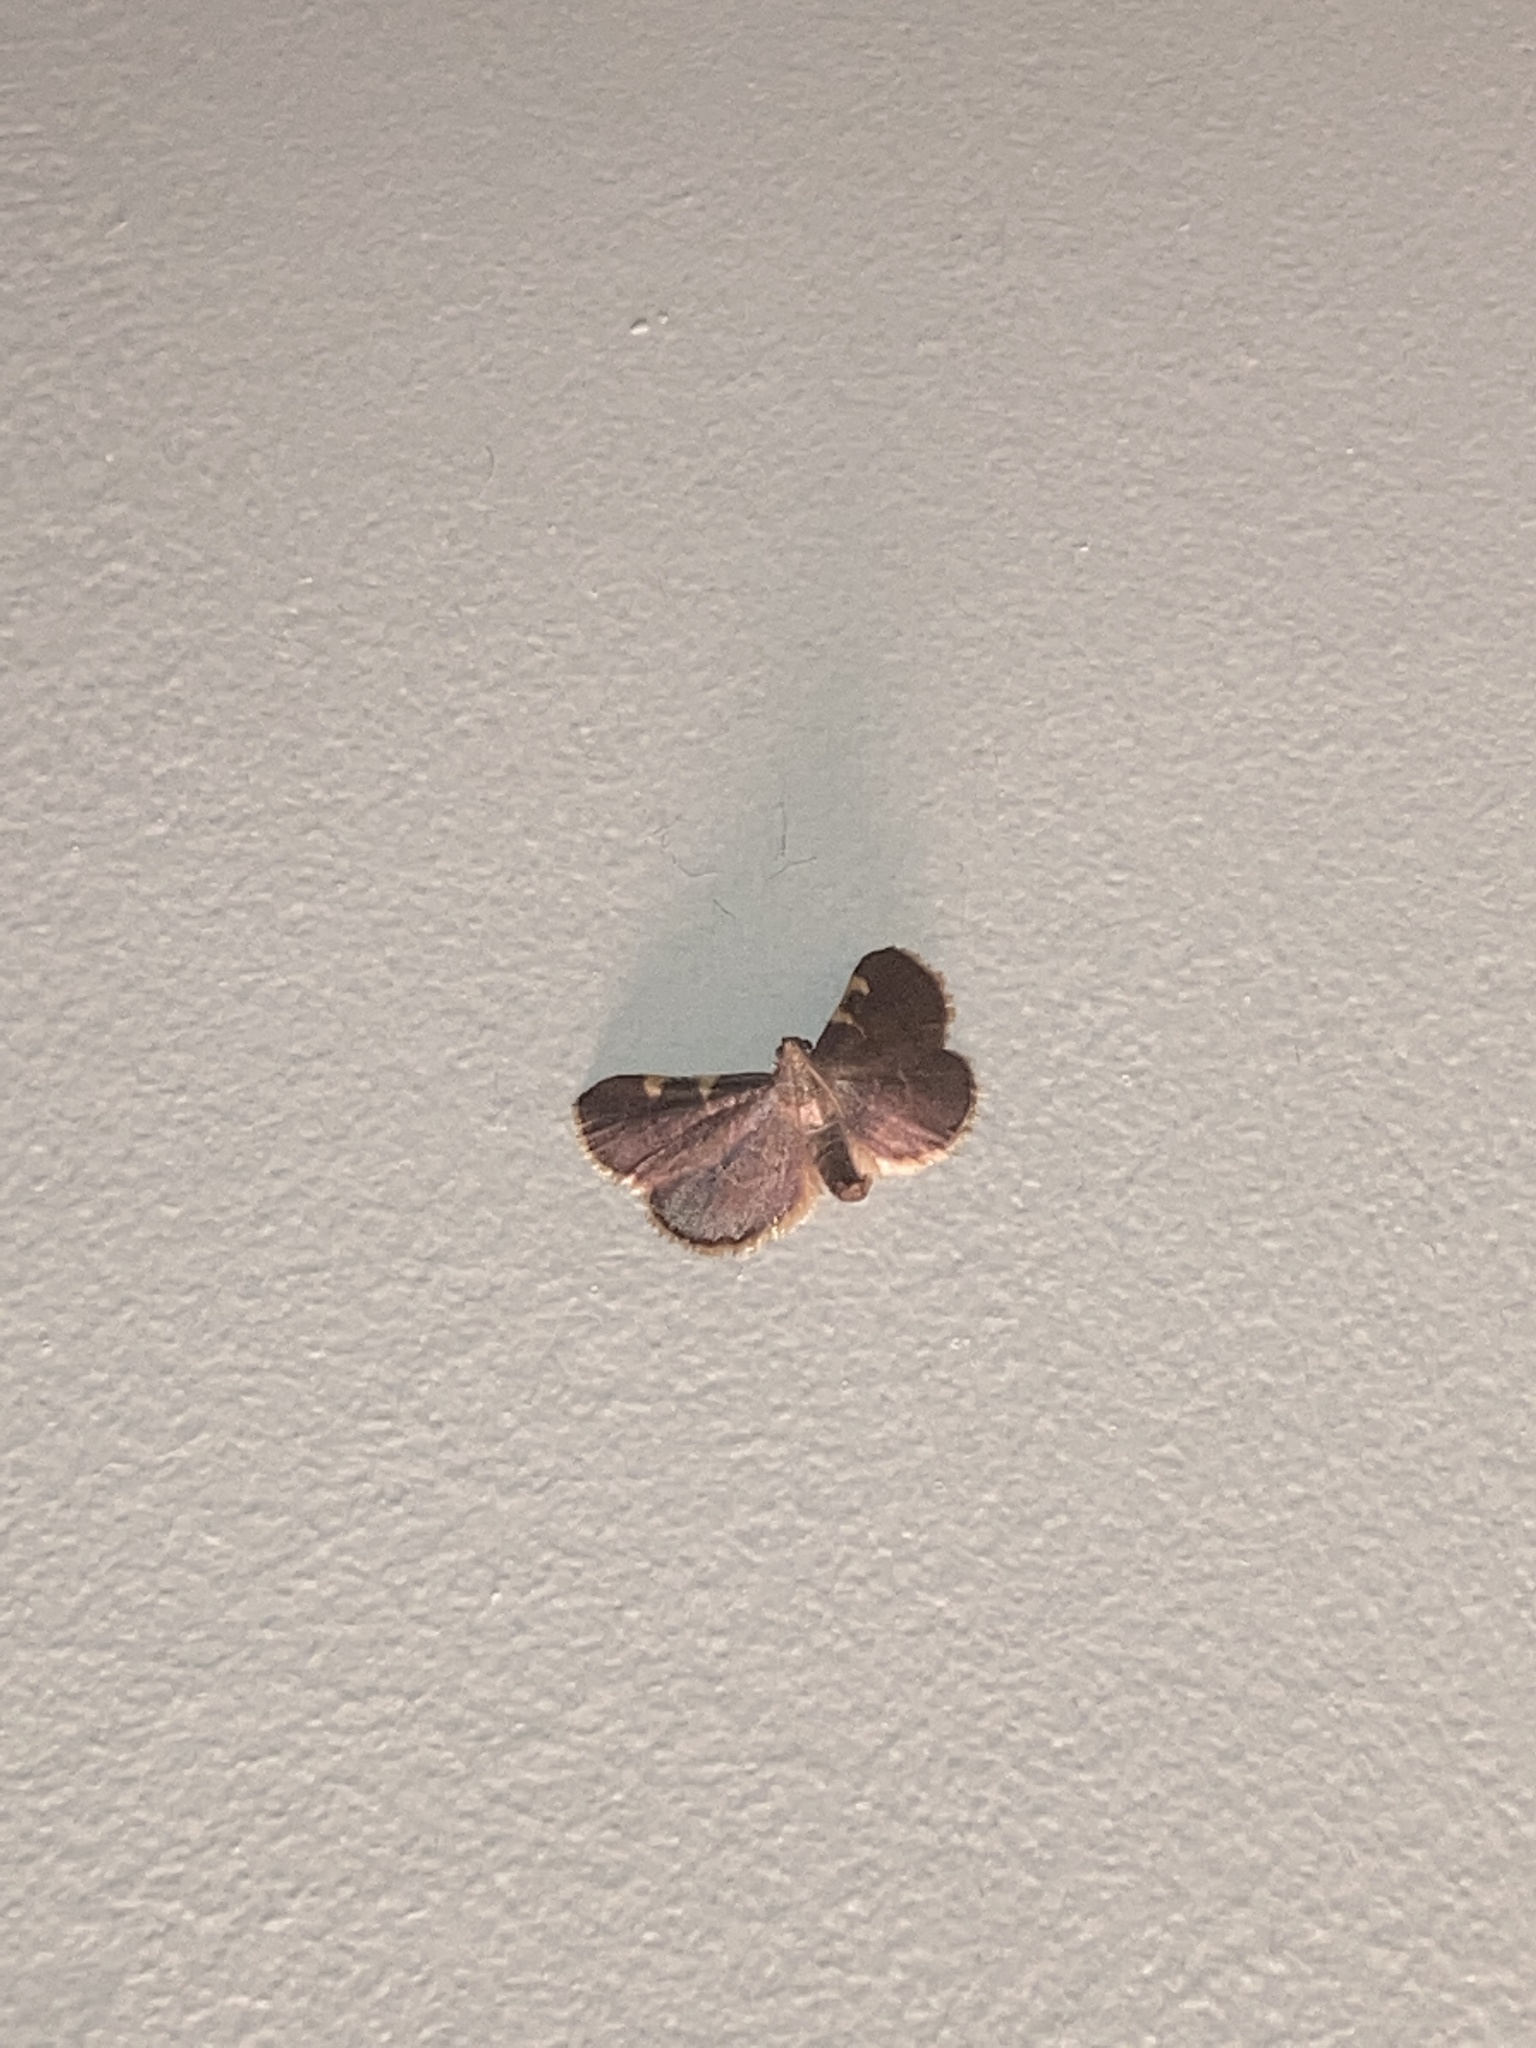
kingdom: Animalia
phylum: Arthropoda
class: Insecta
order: Lepidoptera
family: Pyralidae
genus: Hypsopygia
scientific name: Hypsopygia olinalis
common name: Yellow-fringed dolichomia moth
